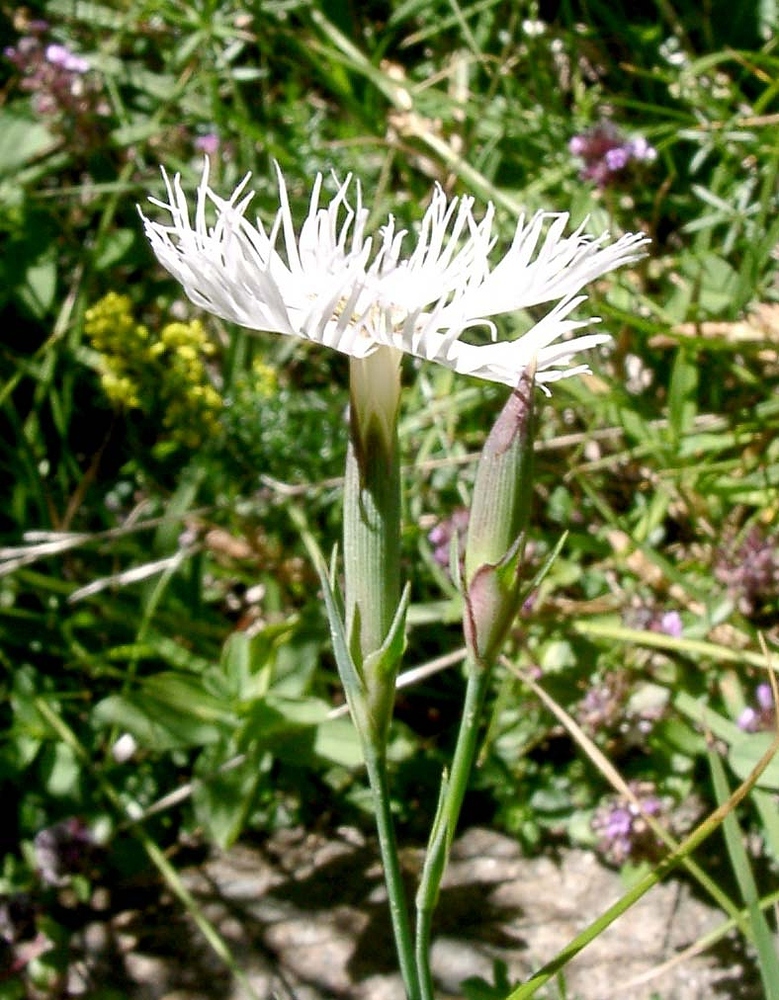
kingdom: Plantae
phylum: Tracheophyta
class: Magnoliopsida
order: Caryophyllales
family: Caryophyllaceae
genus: Dianthus
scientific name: Dianthus hyssopifolius
